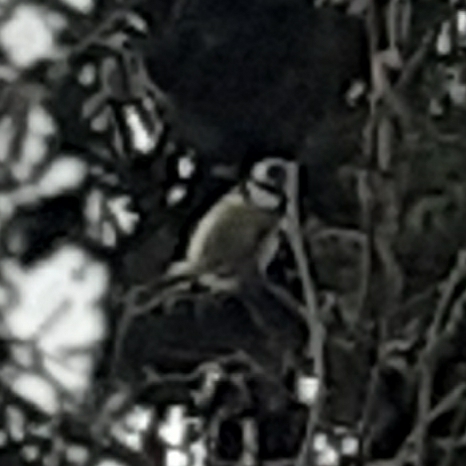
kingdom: Animalia
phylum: Chordata
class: Aves
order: Passeriformes
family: Paridae
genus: Cyanistes
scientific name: Cyanistes caeruleus
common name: Eurasian blue tit
